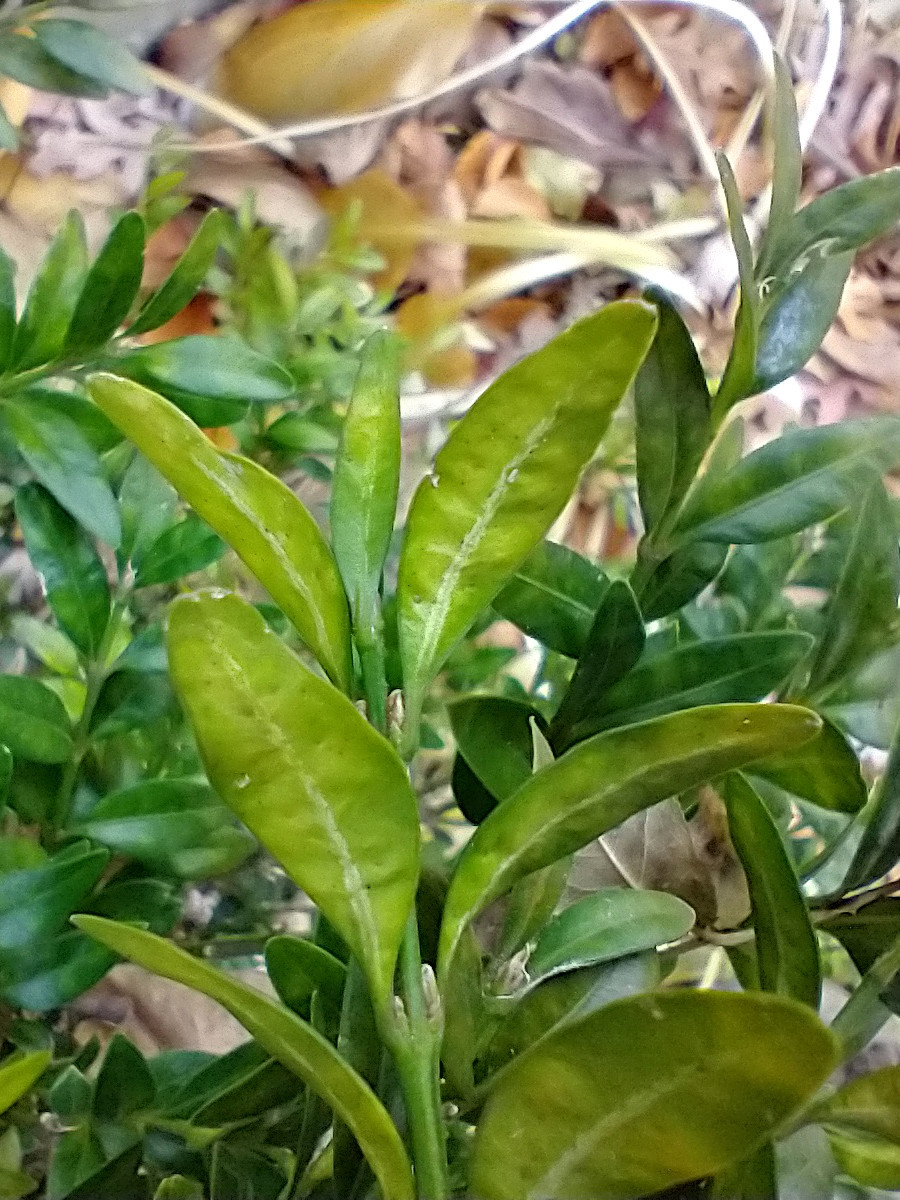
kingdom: Animalia
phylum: Arthropoda
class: Insecta
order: Diptera
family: Cecidomyiidae
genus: Monarthropalpus
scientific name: Monarthropalpus flavus
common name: Boxwood leafminer
